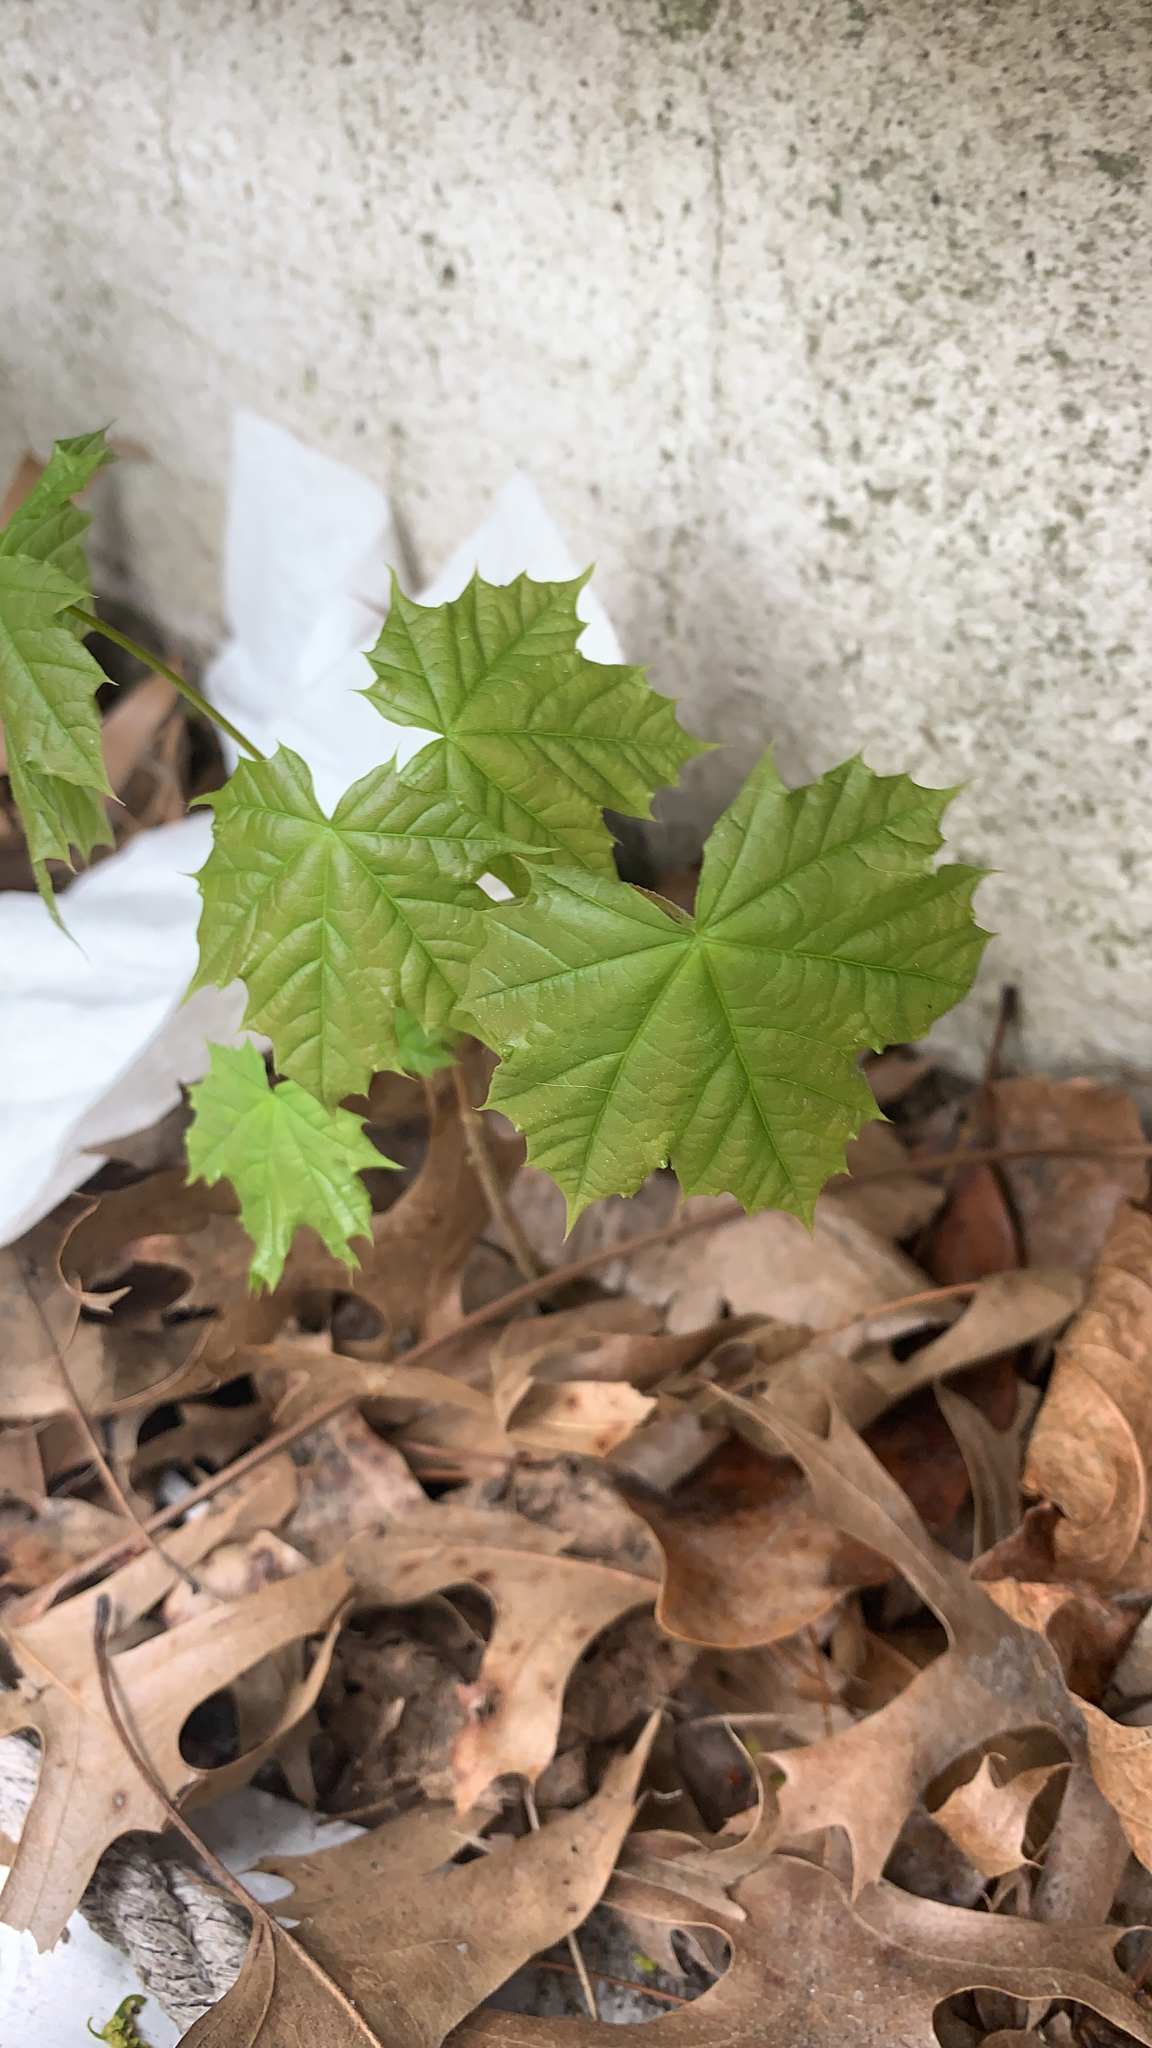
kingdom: Plantae
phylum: Tracheophyta
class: Magnoliopsida
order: Sapindales
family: Sapindaceae
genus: Acer
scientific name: Acer platanoides
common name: Norway maple
